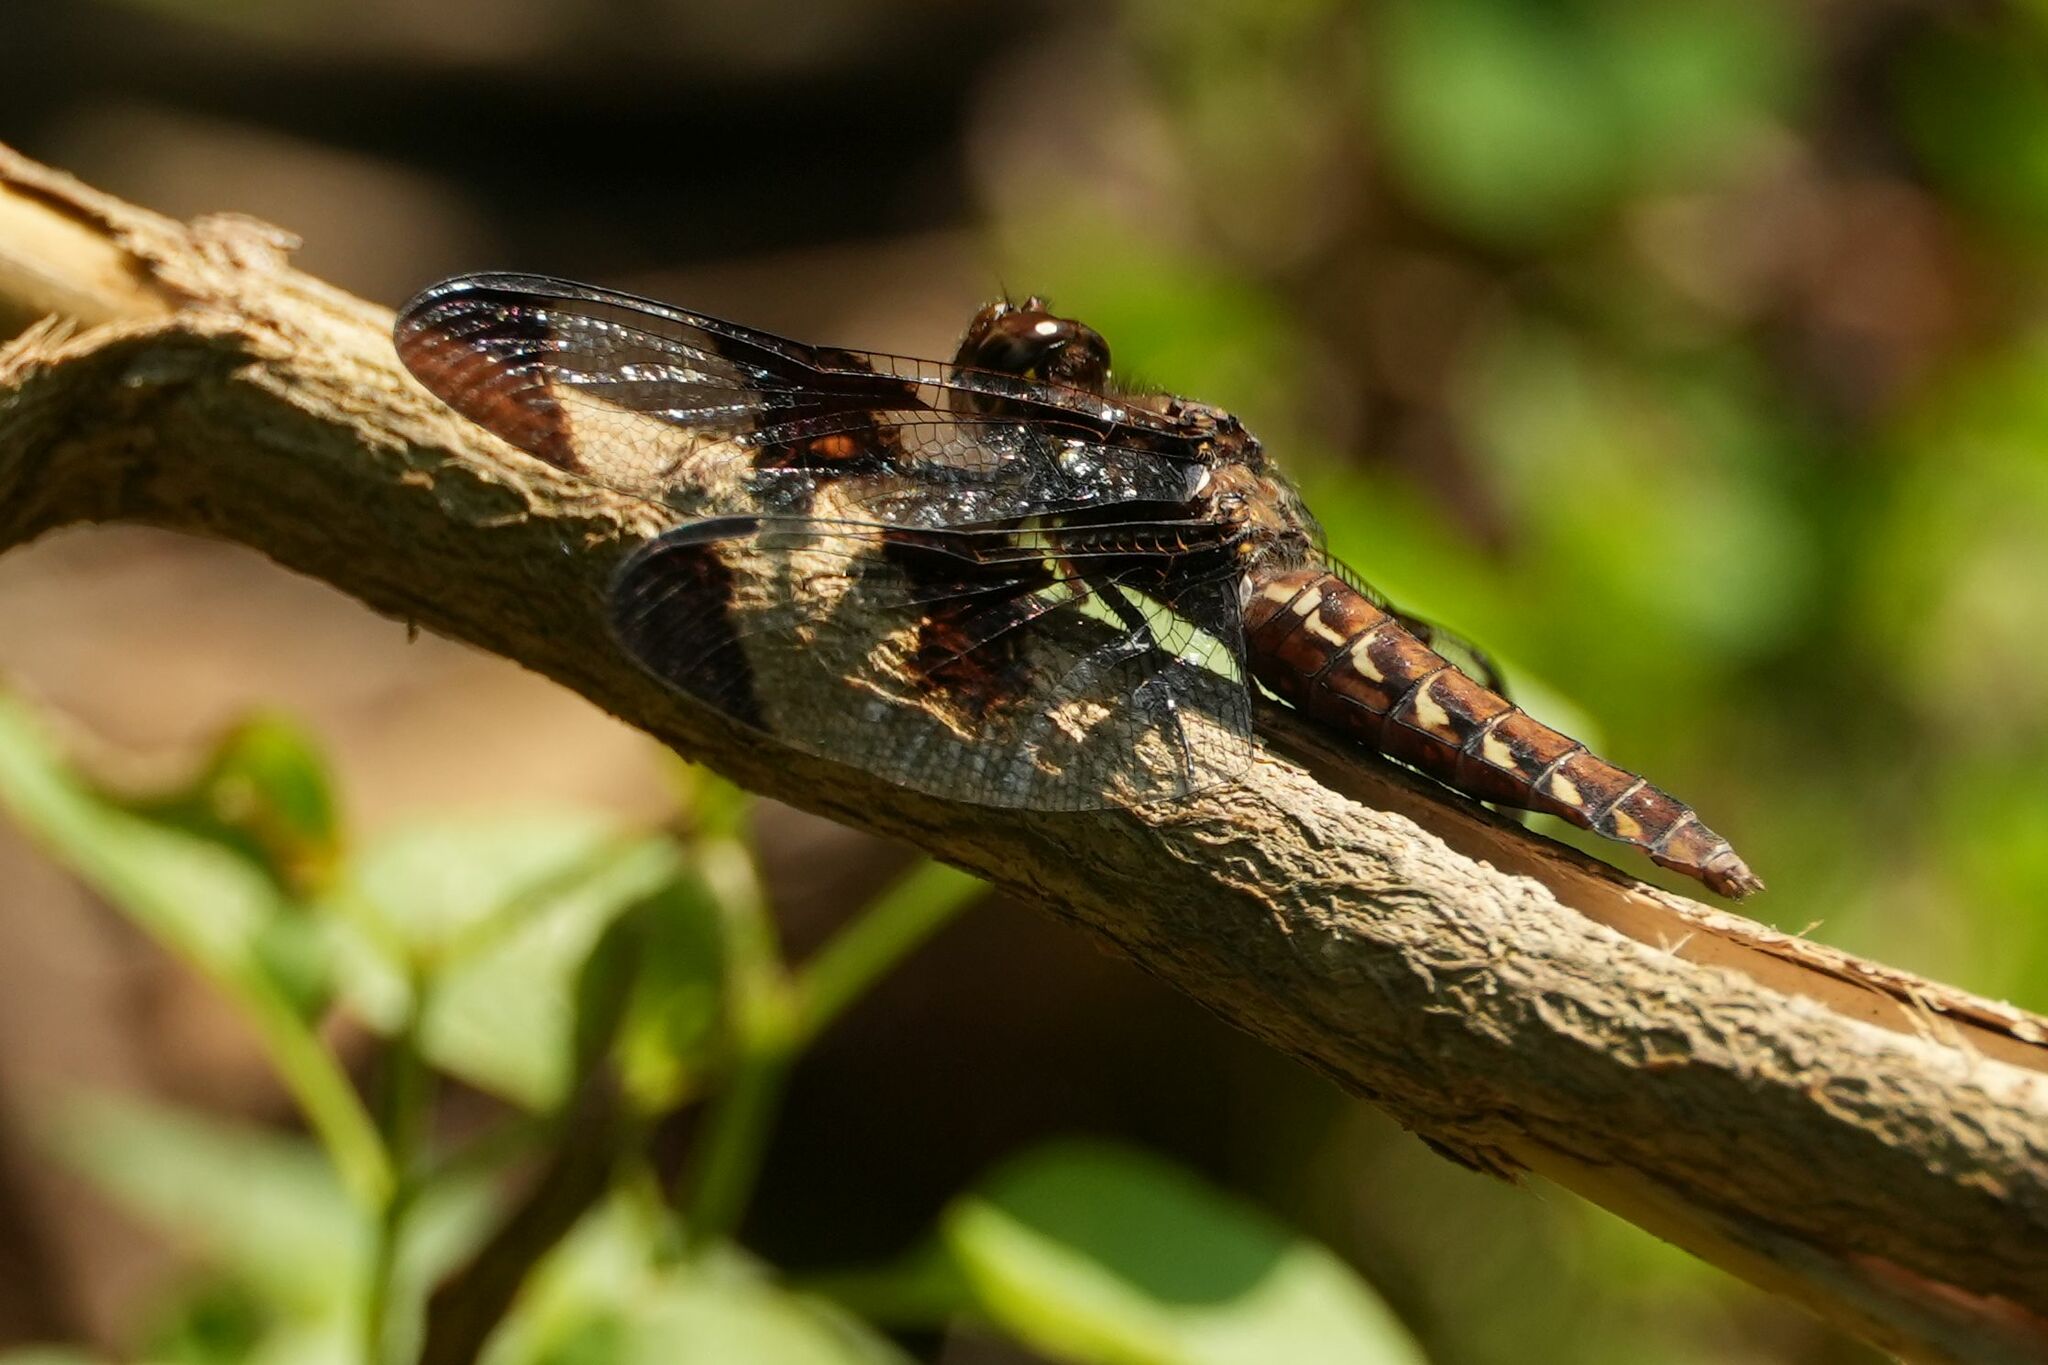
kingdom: Animalia
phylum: Arthropoda
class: Insecta
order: Odonata
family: Libellulidae
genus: Plathemis
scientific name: Plathemis lydia
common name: Common whitetail
